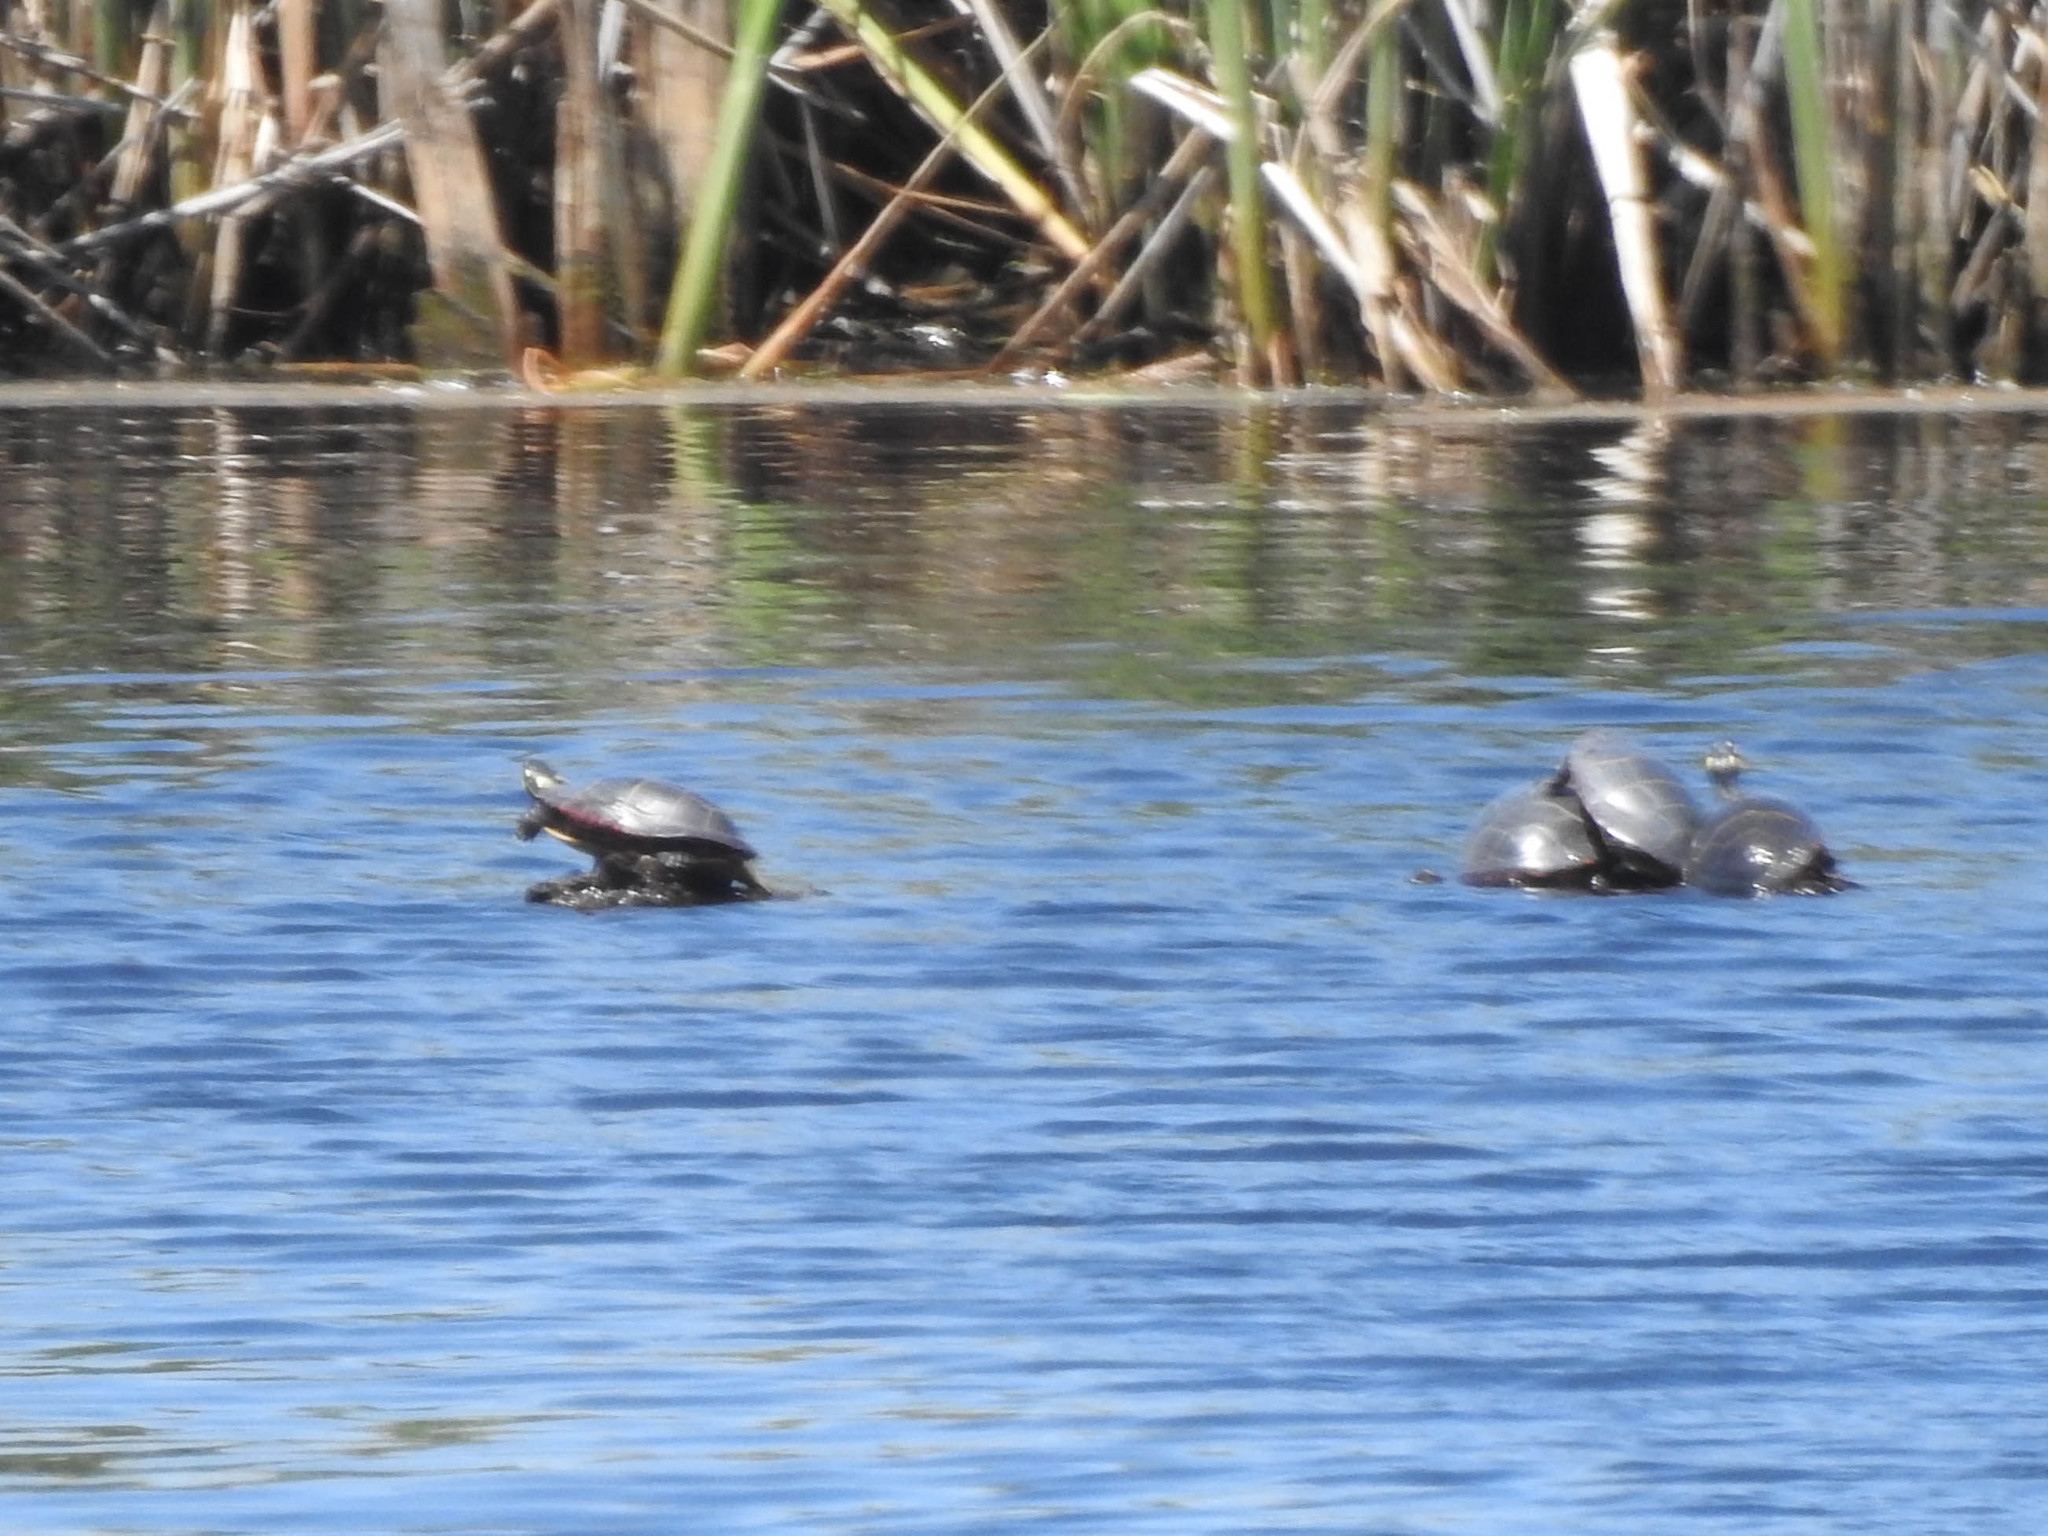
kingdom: Animalia
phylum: Chordata
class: Testudines
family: Emydidae
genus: Chrysemys
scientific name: Chrysemys picta
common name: Painted turtle
